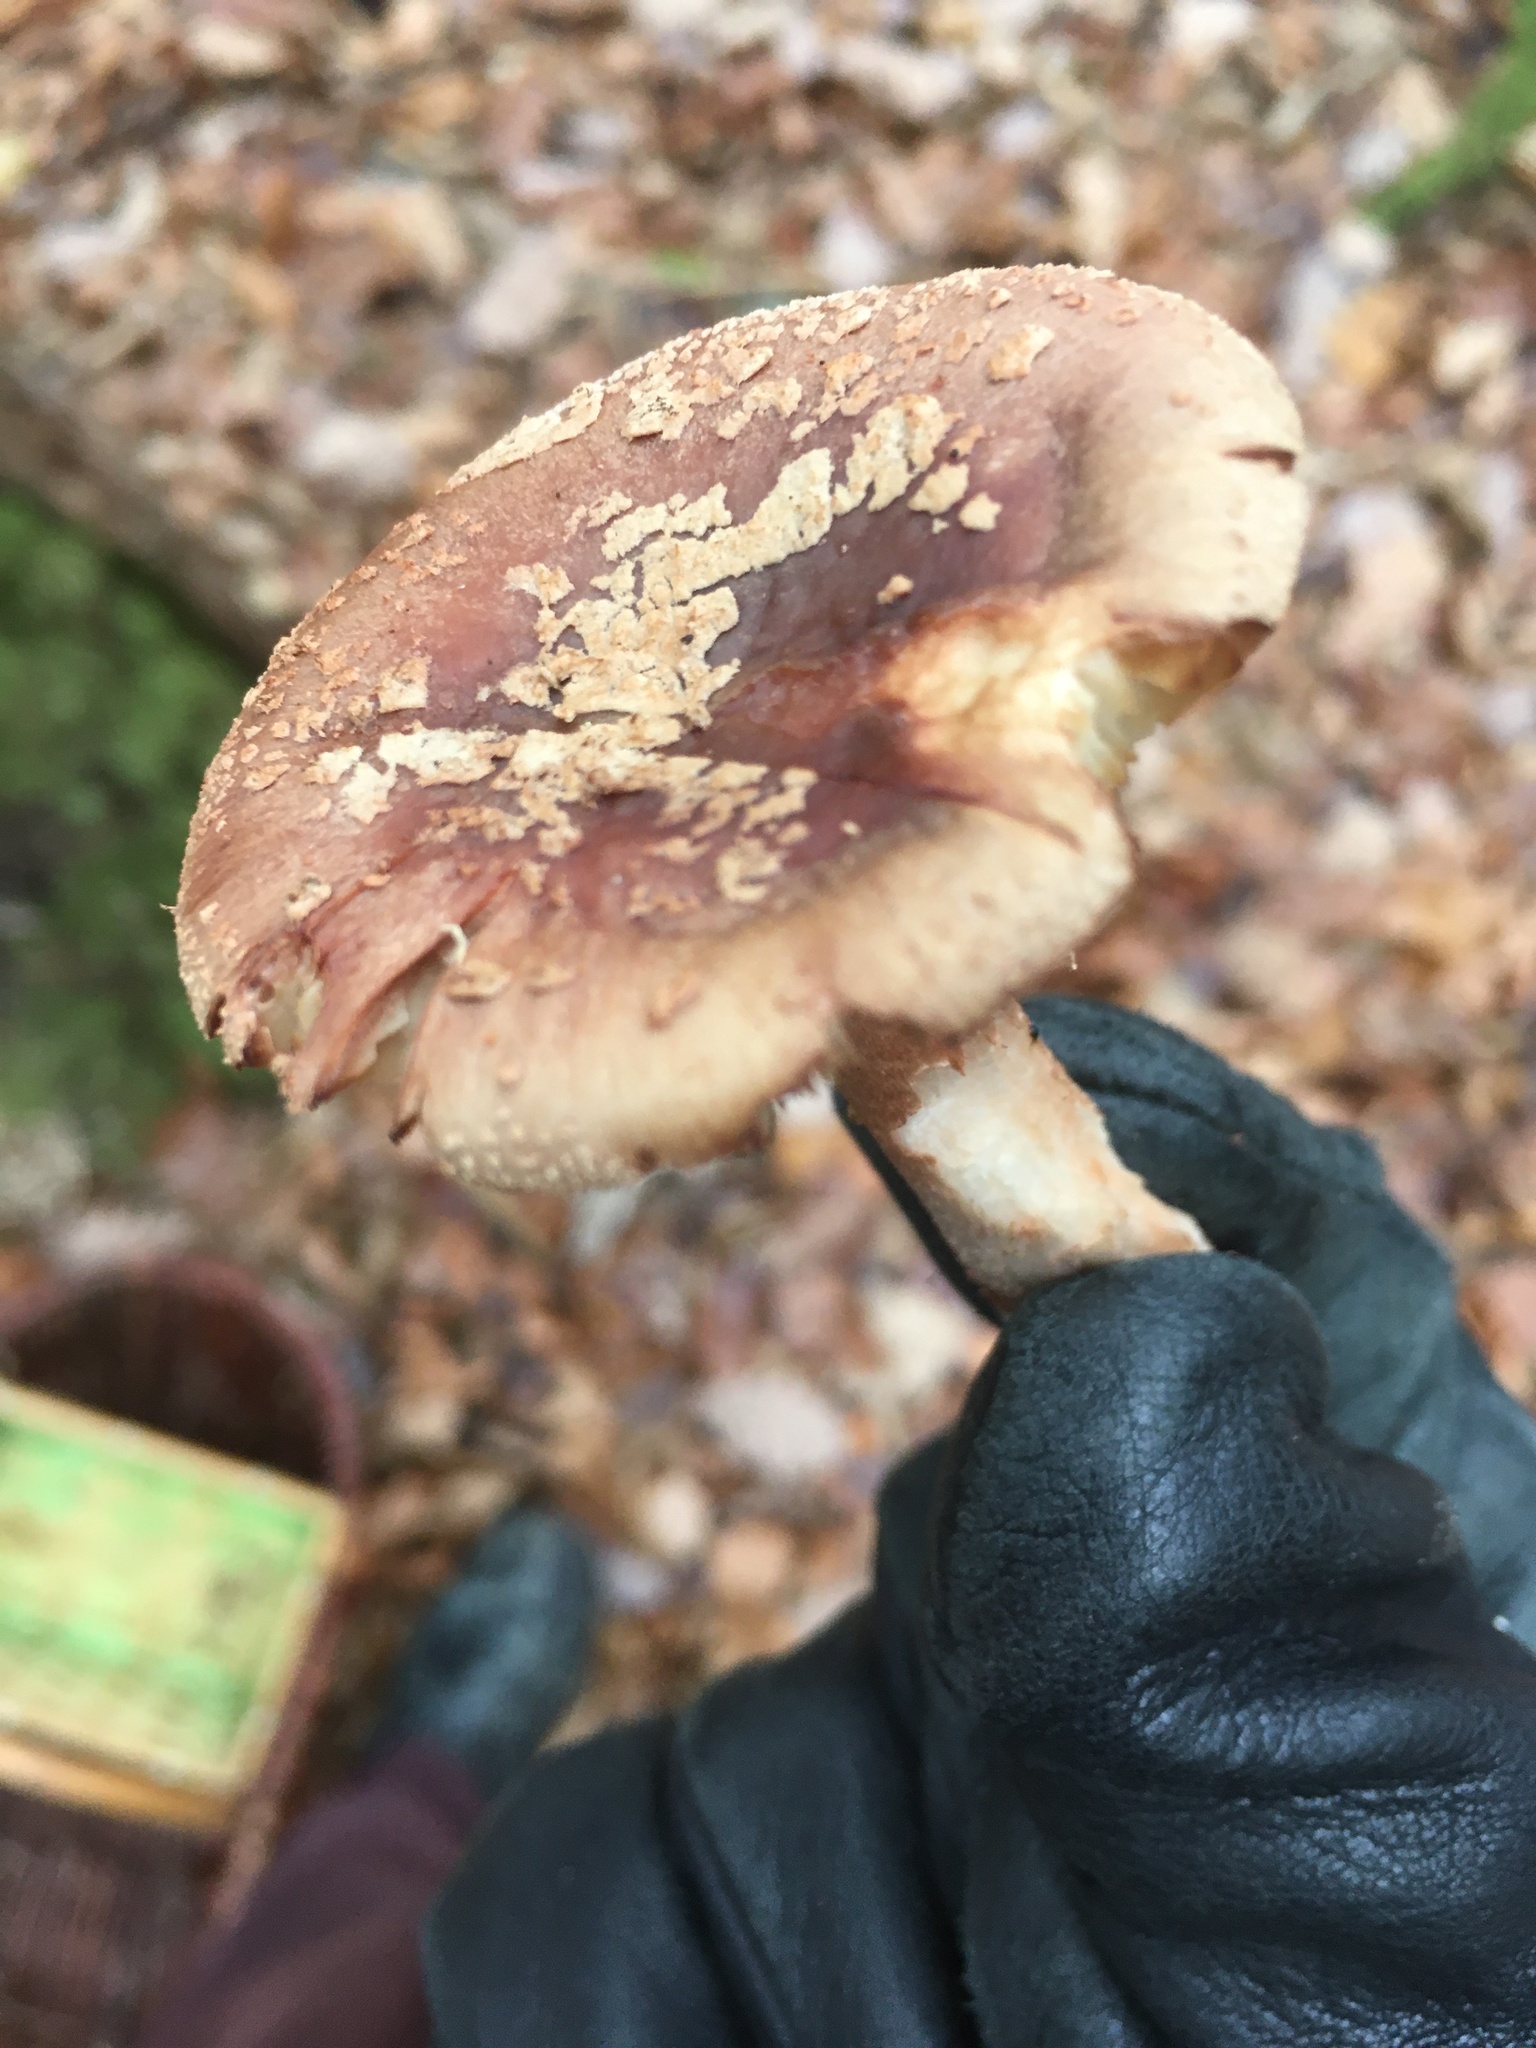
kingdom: Fungi
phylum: Basidiomycota
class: Agaricomycetes
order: Agaricales
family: Amanitaceae
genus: Amanita
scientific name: Amanita rubescens
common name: Blusher
